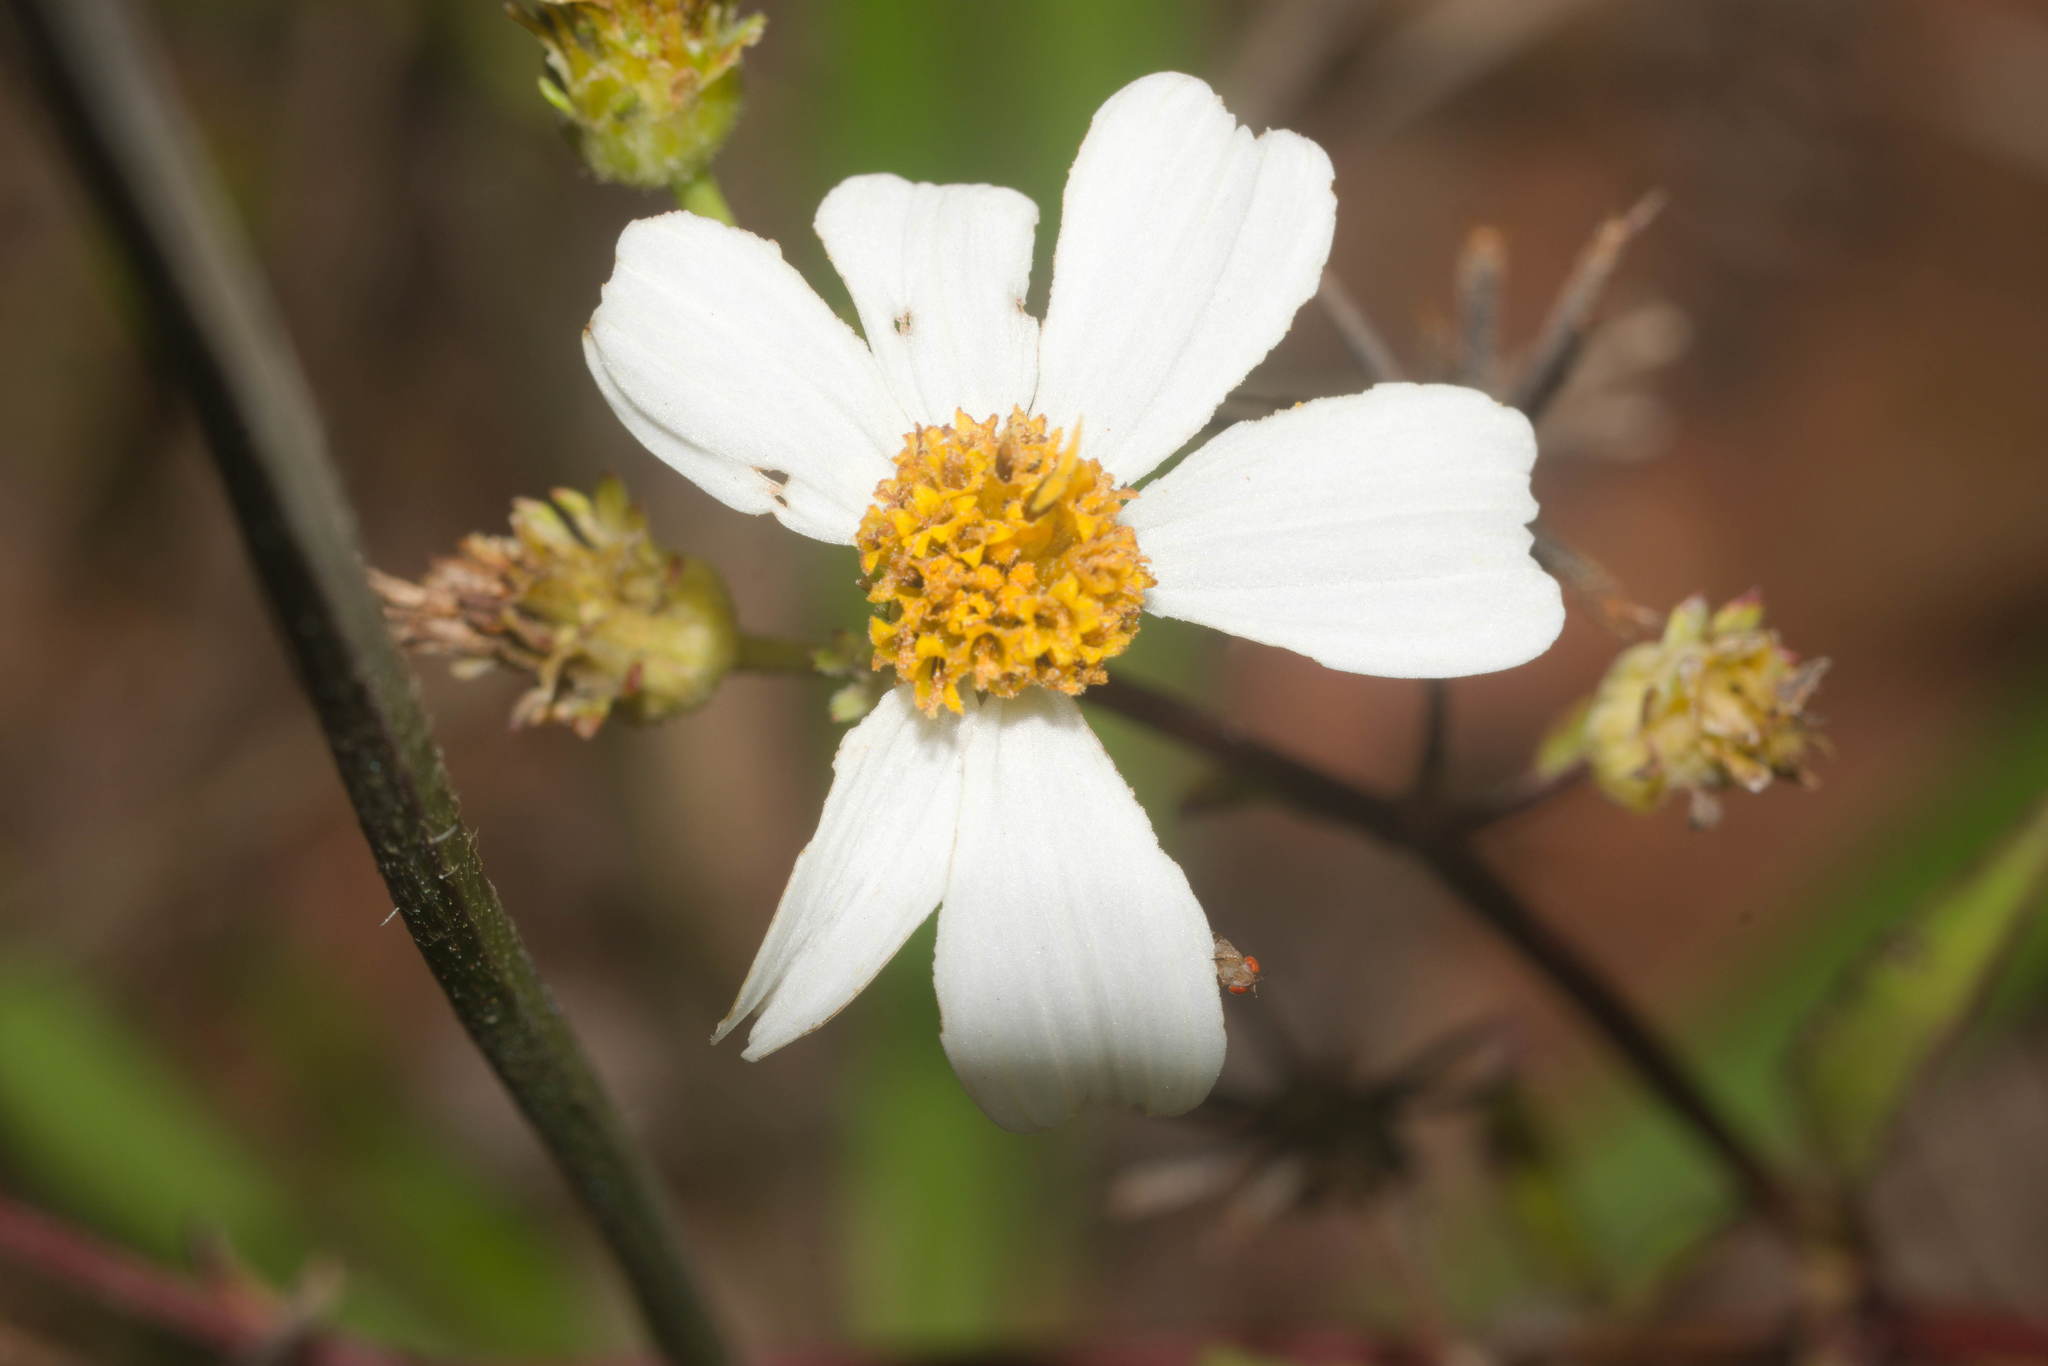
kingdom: Plantae
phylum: Tracheophyta
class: Magnoliopsida
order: Asterales
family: Asteraceae
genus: Bidens
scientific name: Bidens alba
